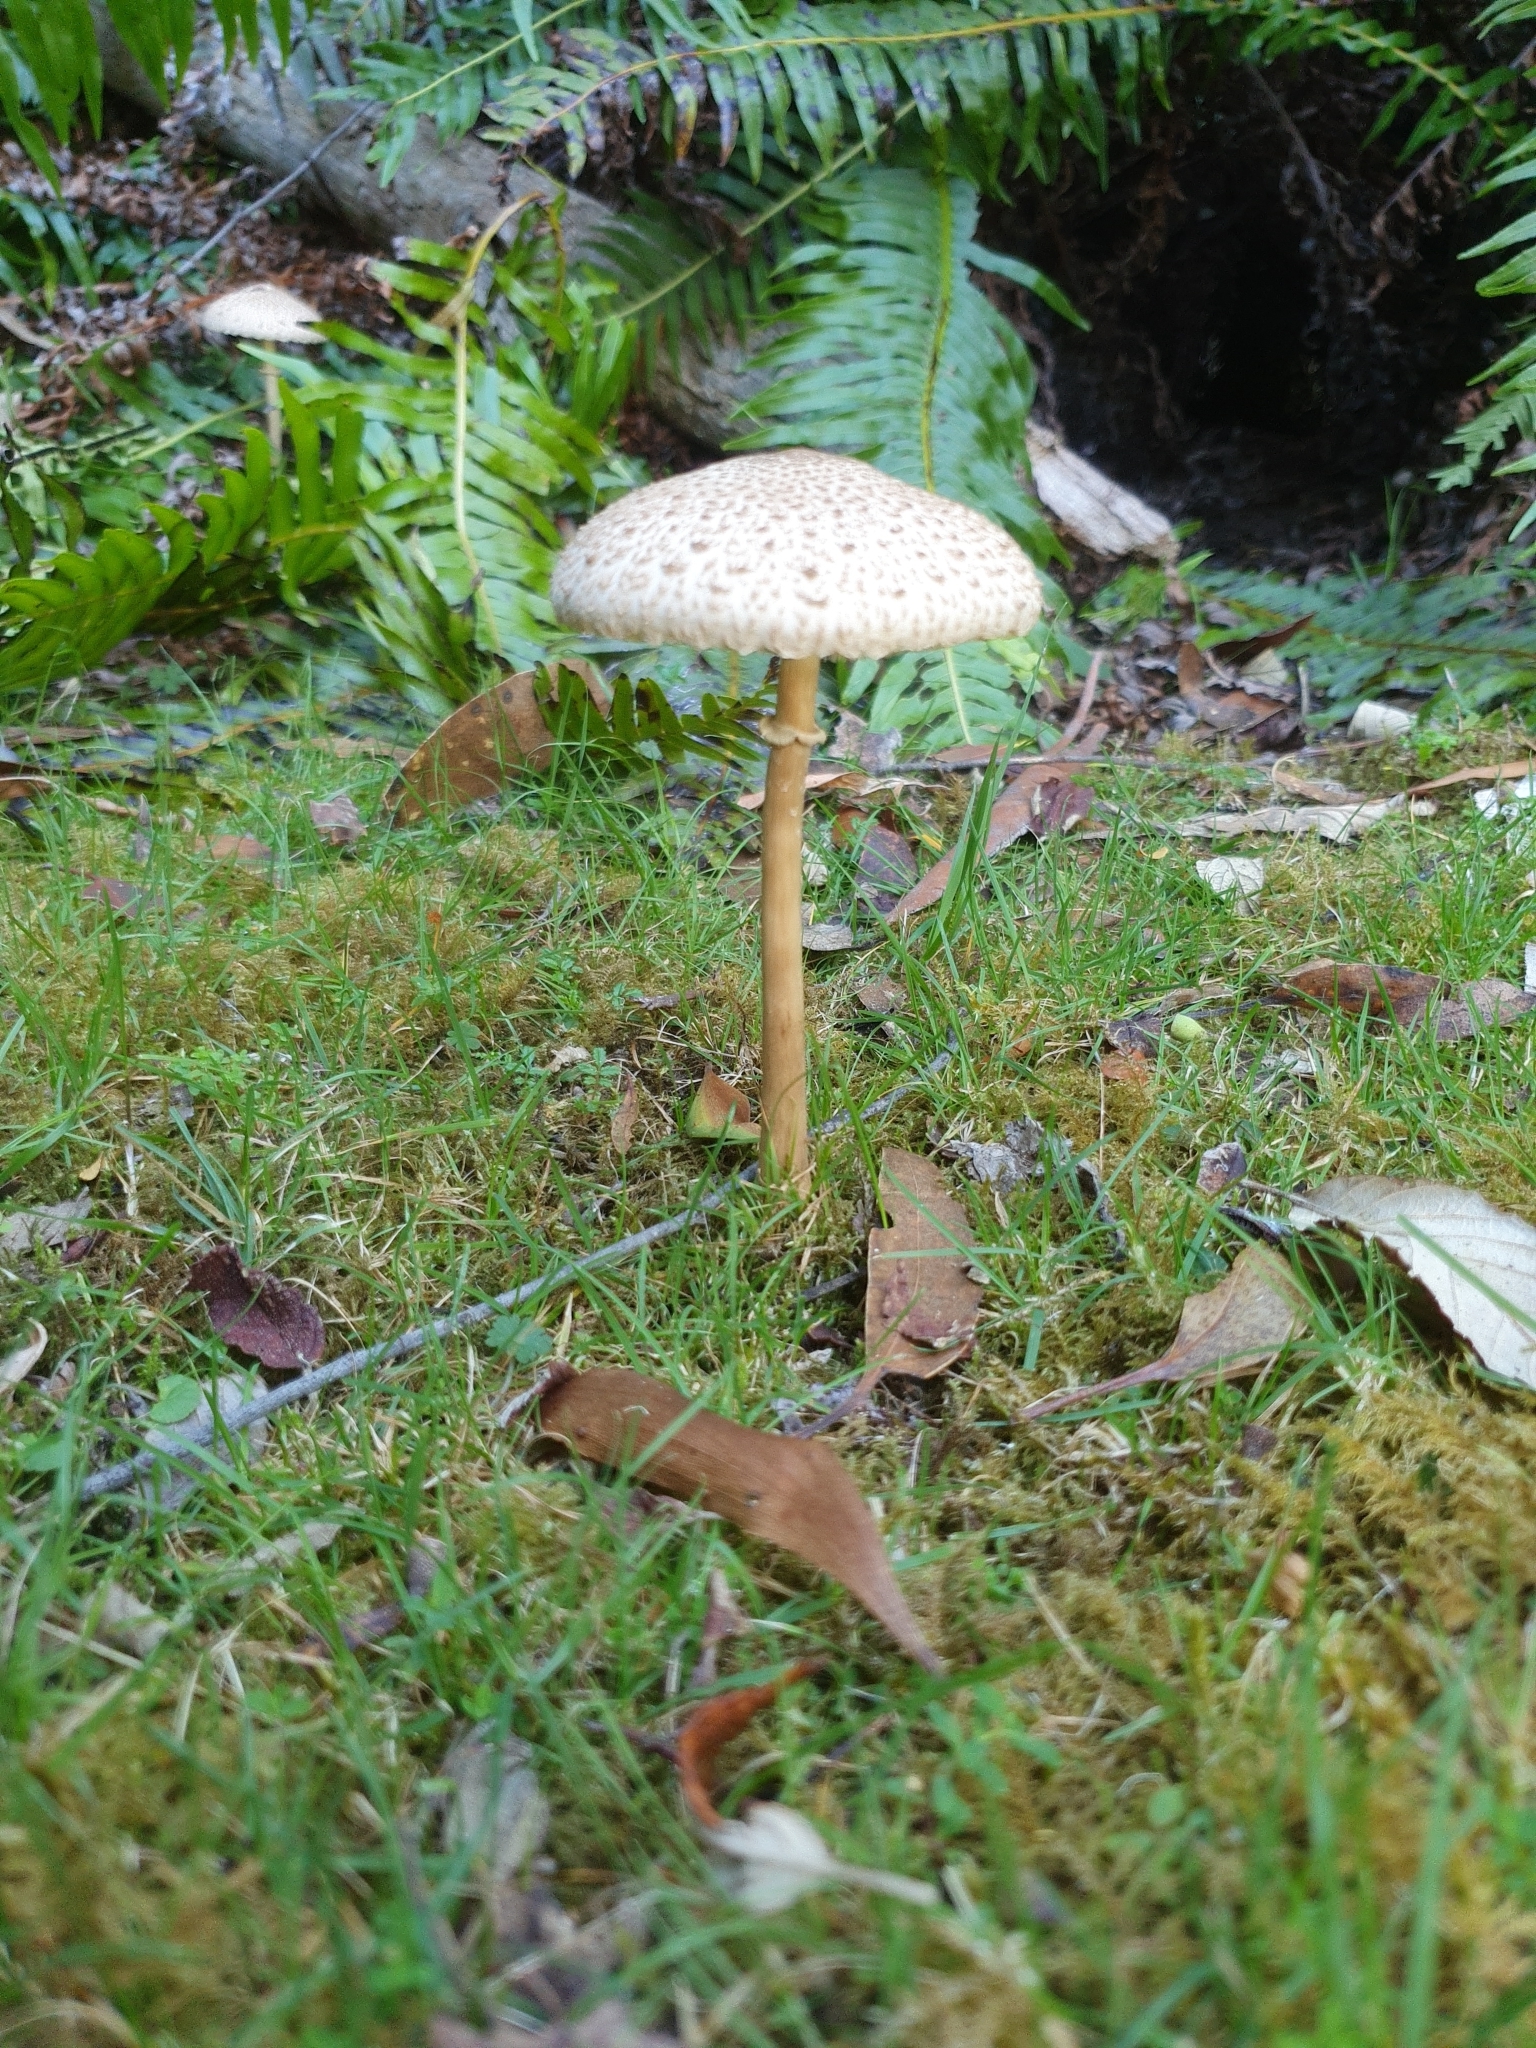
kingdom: Fungi
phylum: Basidiomycota
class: Agaricomycetes
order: Agaricales
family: Agaricaceae
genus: Macrolepiota
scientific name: Macrolepiota clelandii
